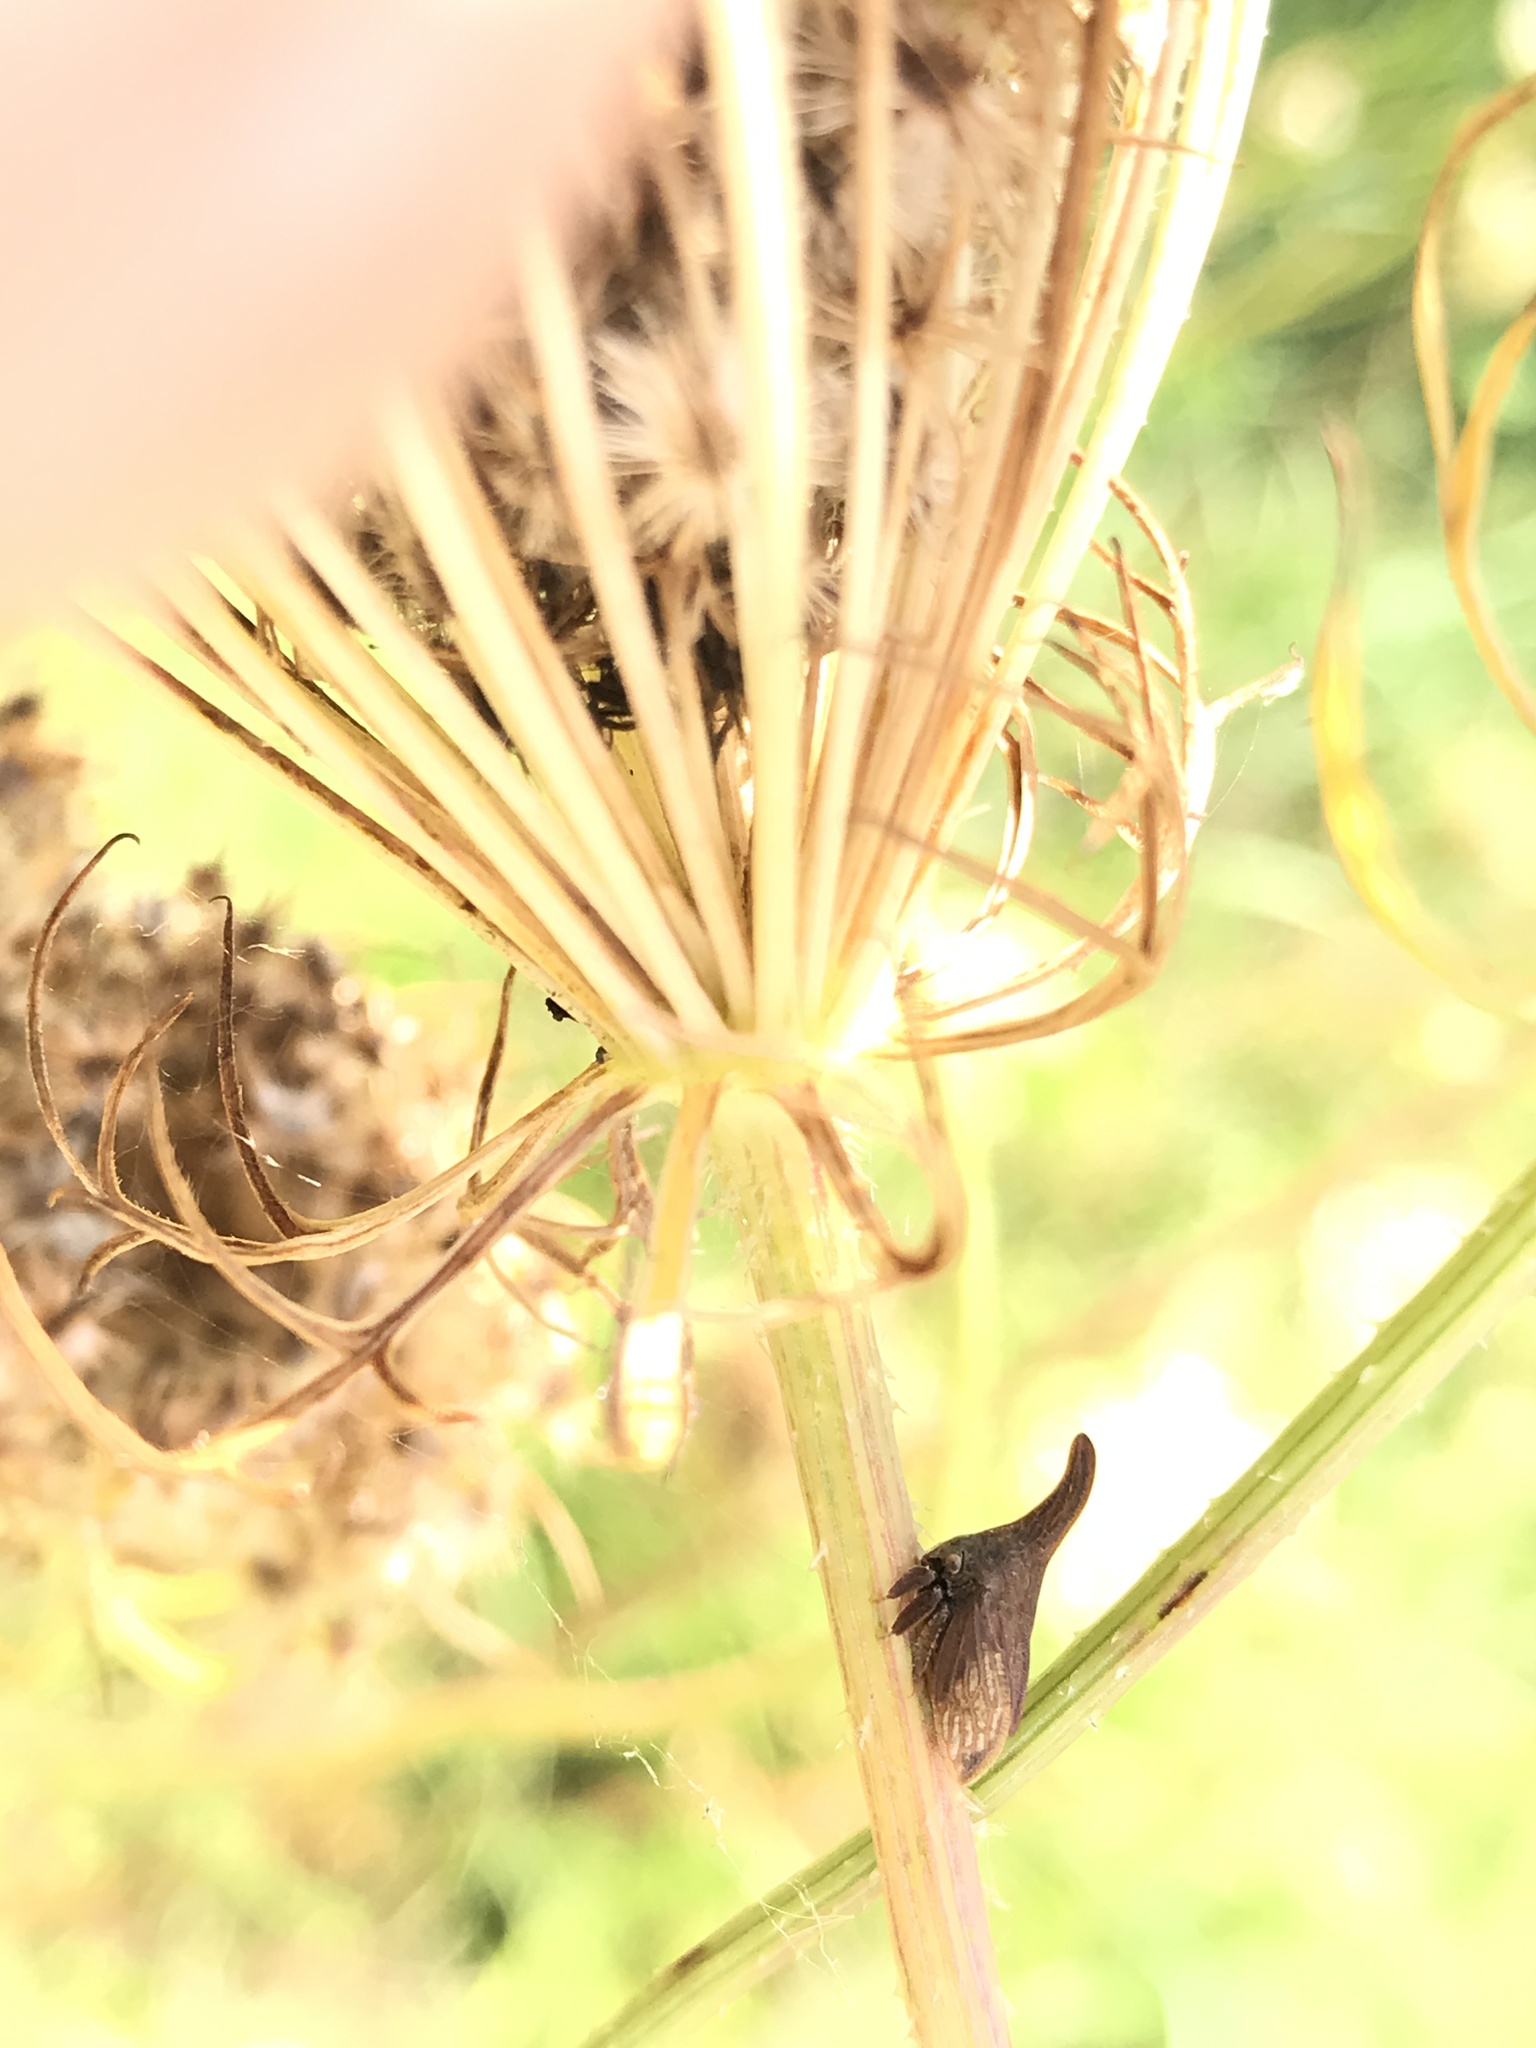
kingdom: Animalia
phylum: Arthropoda
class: Insecta
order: Hemiptera
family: Membracidae
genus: Enchenopa
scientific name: Enchenopa latipes
